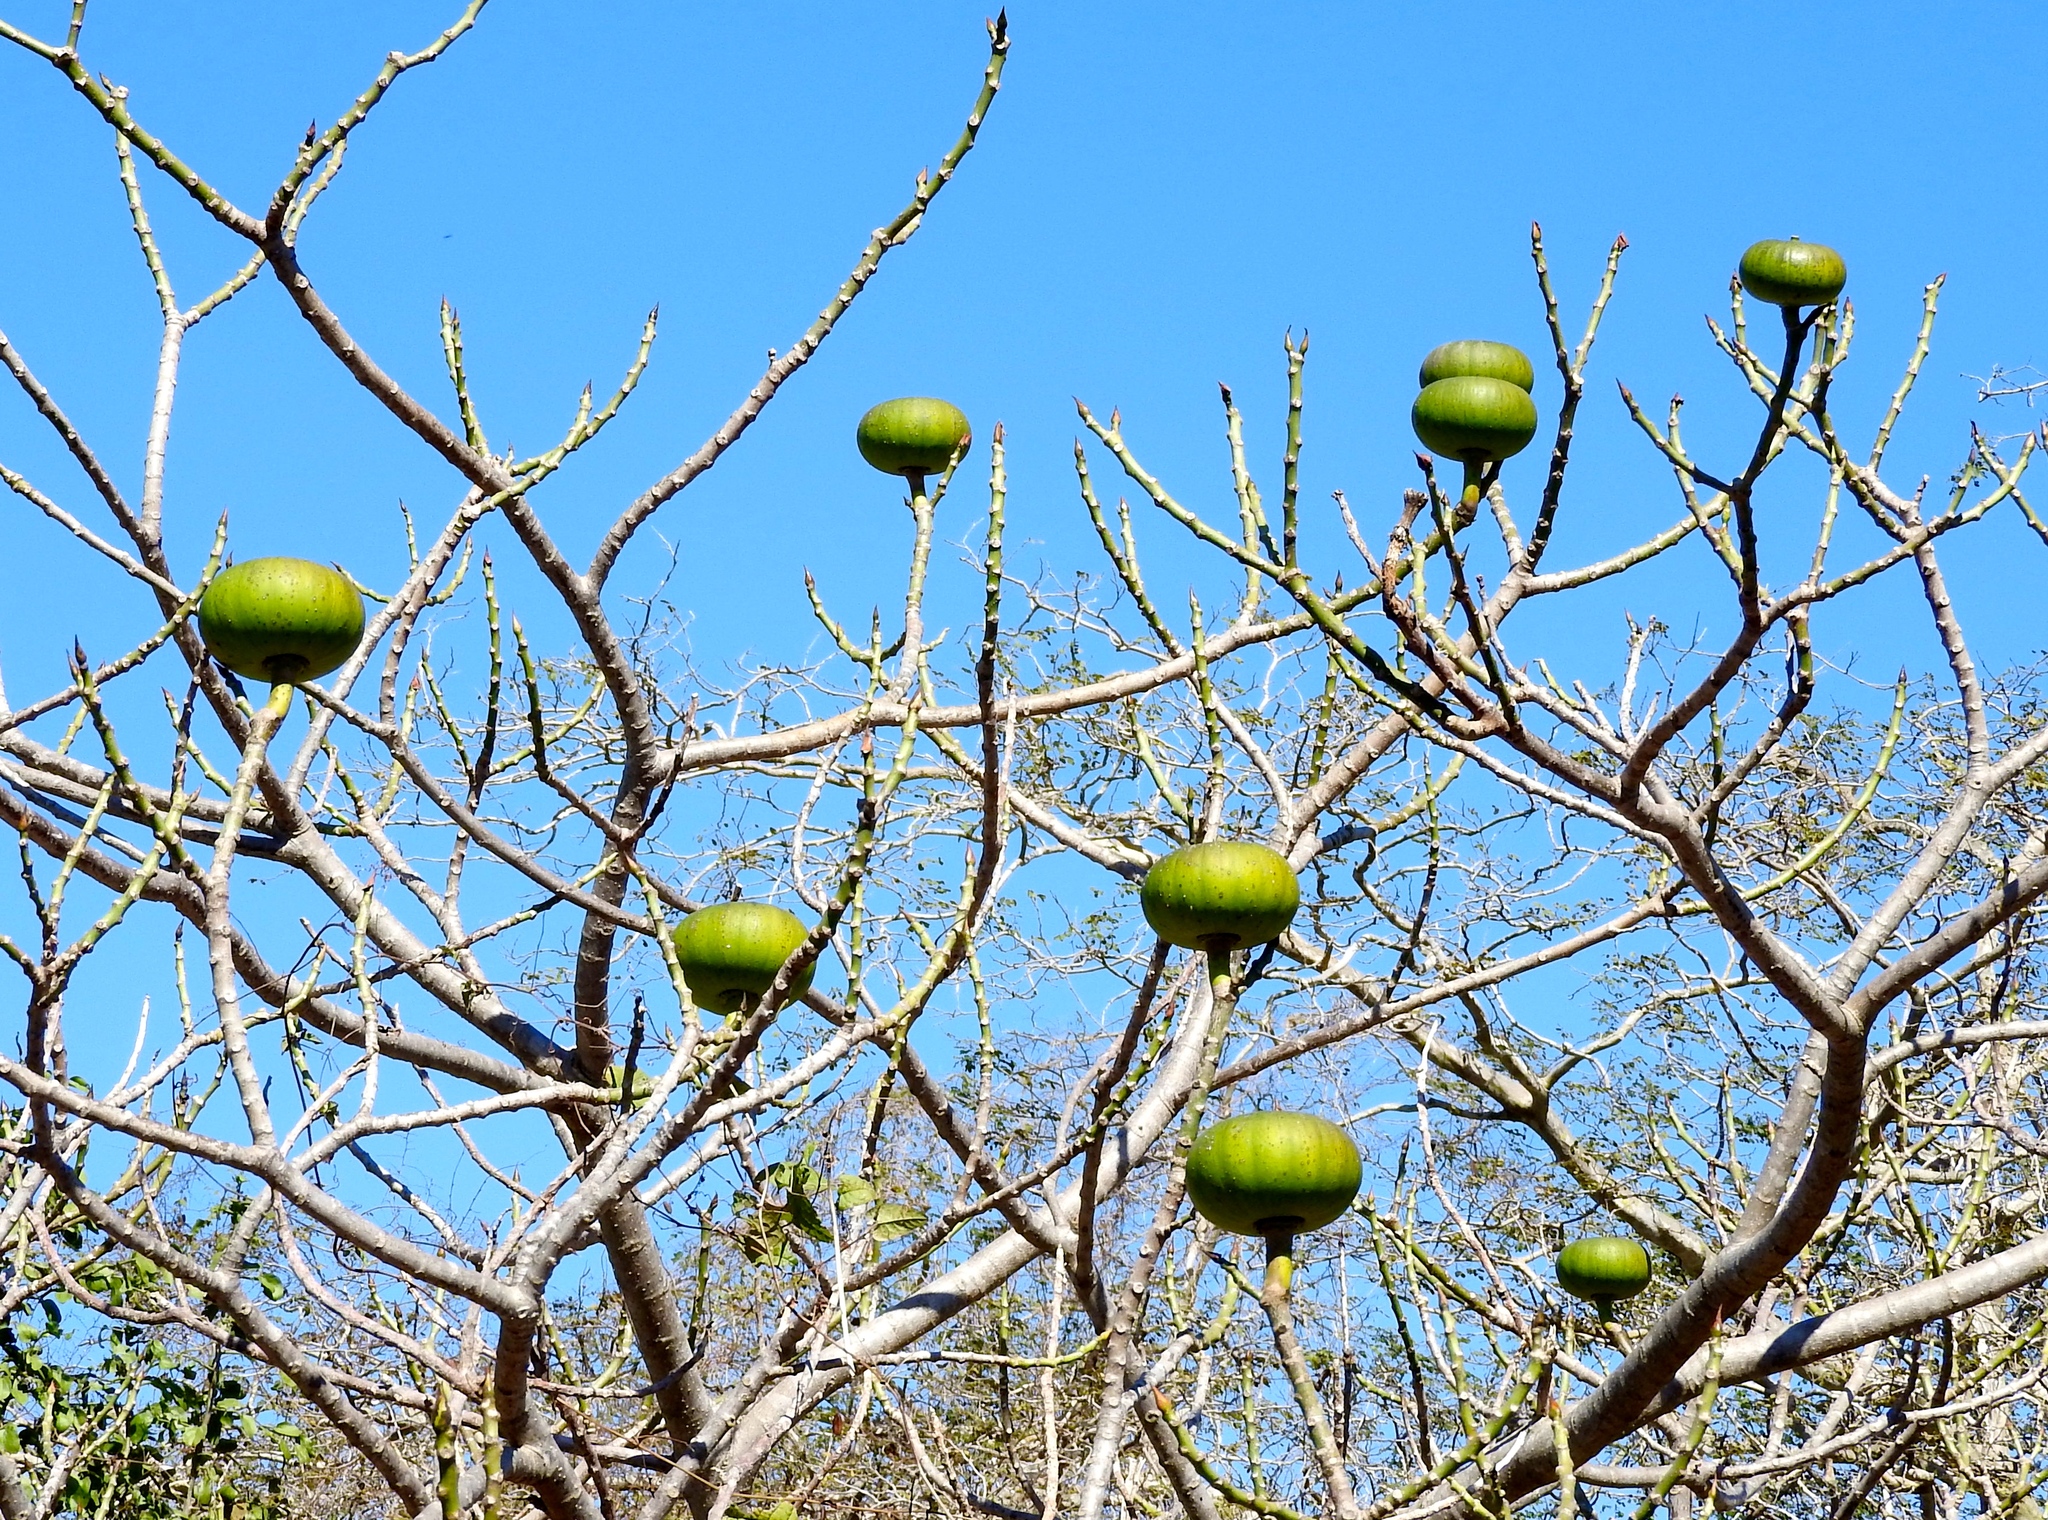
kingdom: Plantae
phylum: Tracheophyta
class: Magnoliopsida
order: Malpighiales
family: Euphorbiaceae
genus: Hura
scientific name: Hura polyandra
